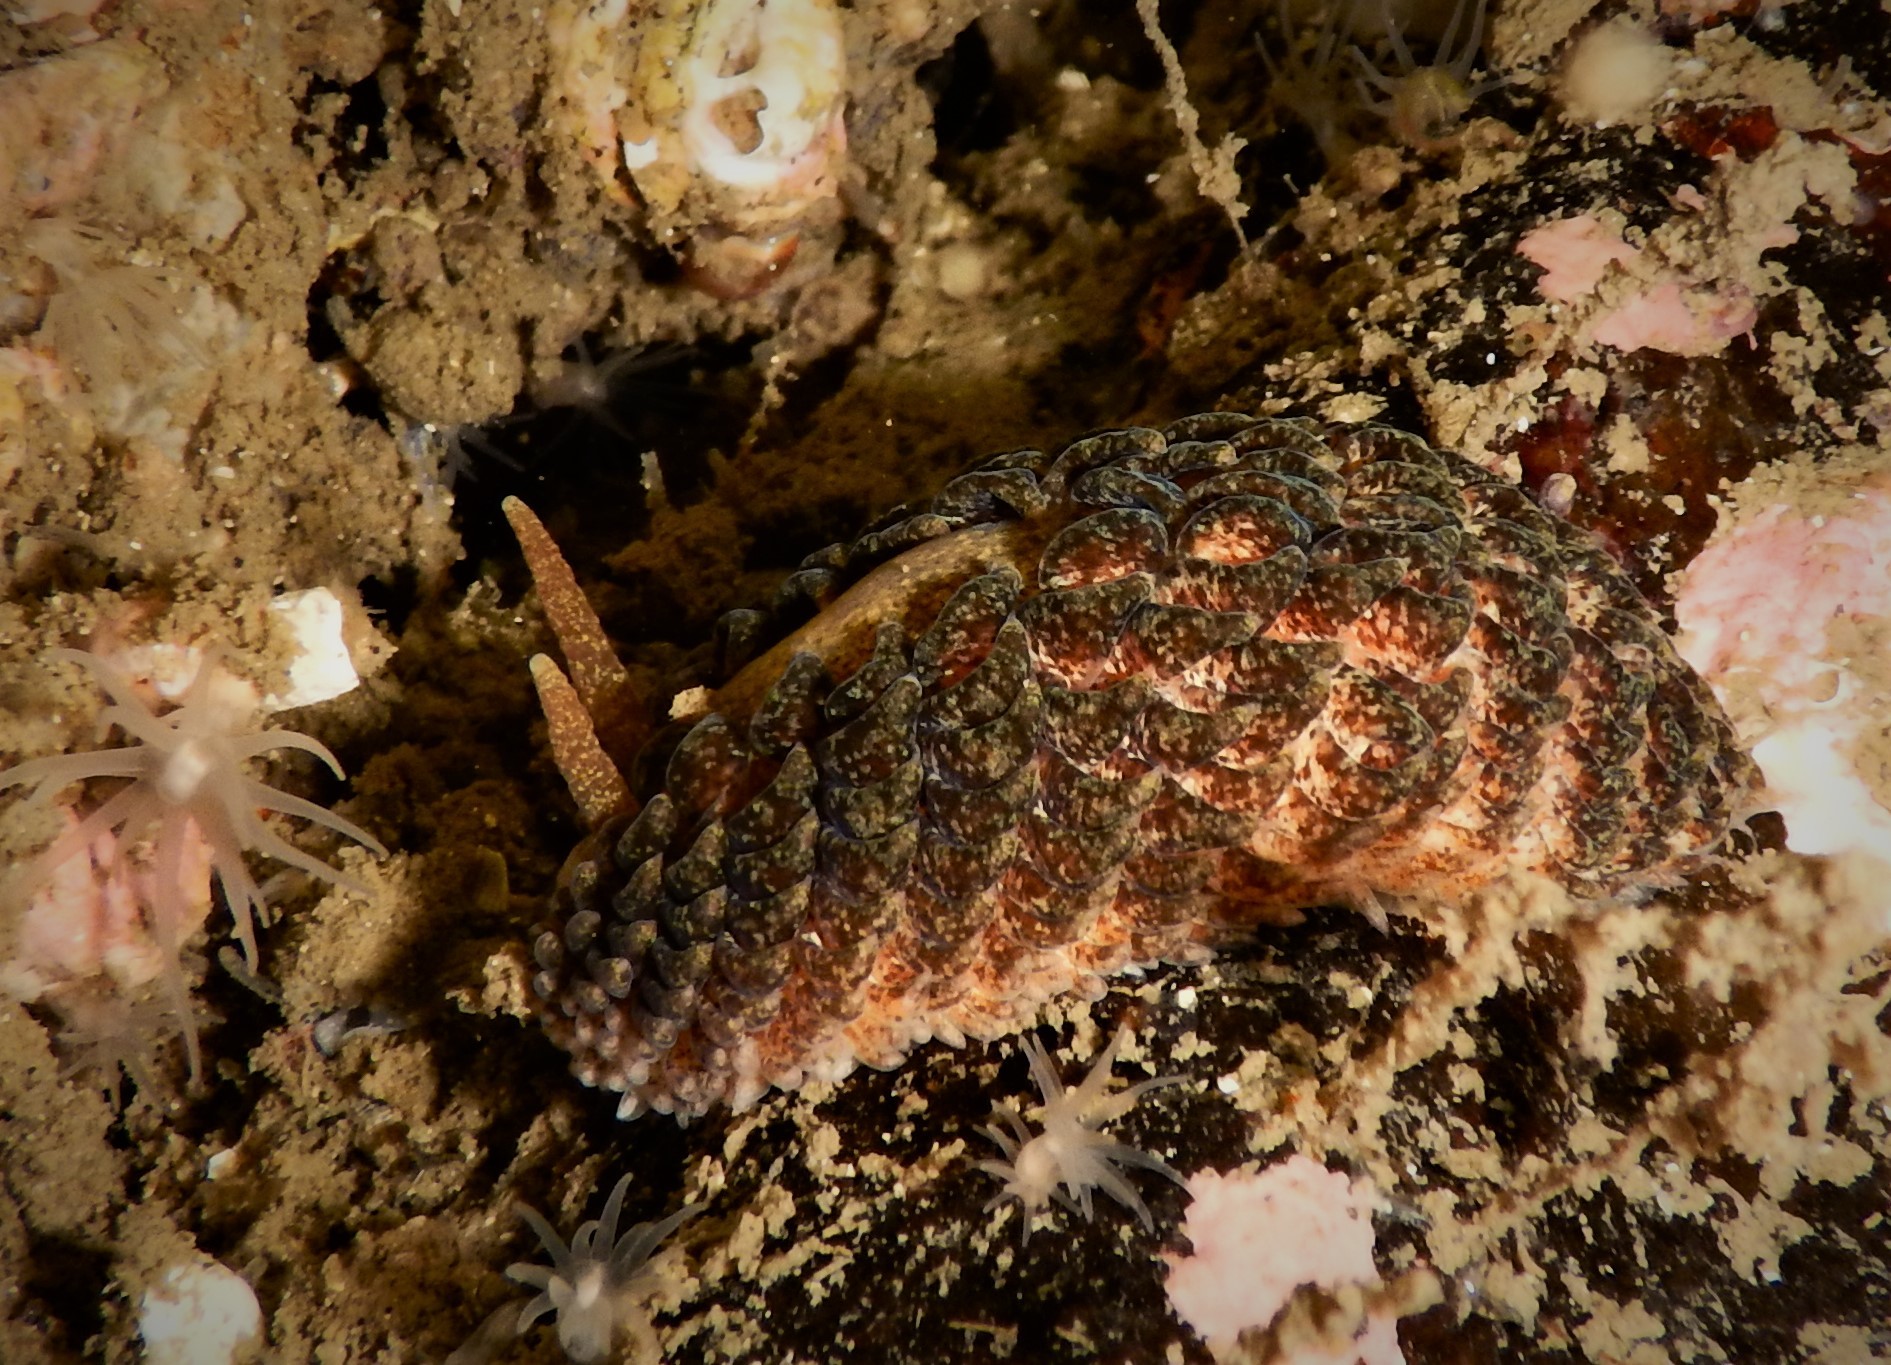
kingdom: Animalia
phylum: Mollusca
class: Gastropoda
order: Nudibranchia
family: Aeolidiidae
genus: Aeolidia
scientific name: Aeolidia papillosa
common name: Common grey sea slug
